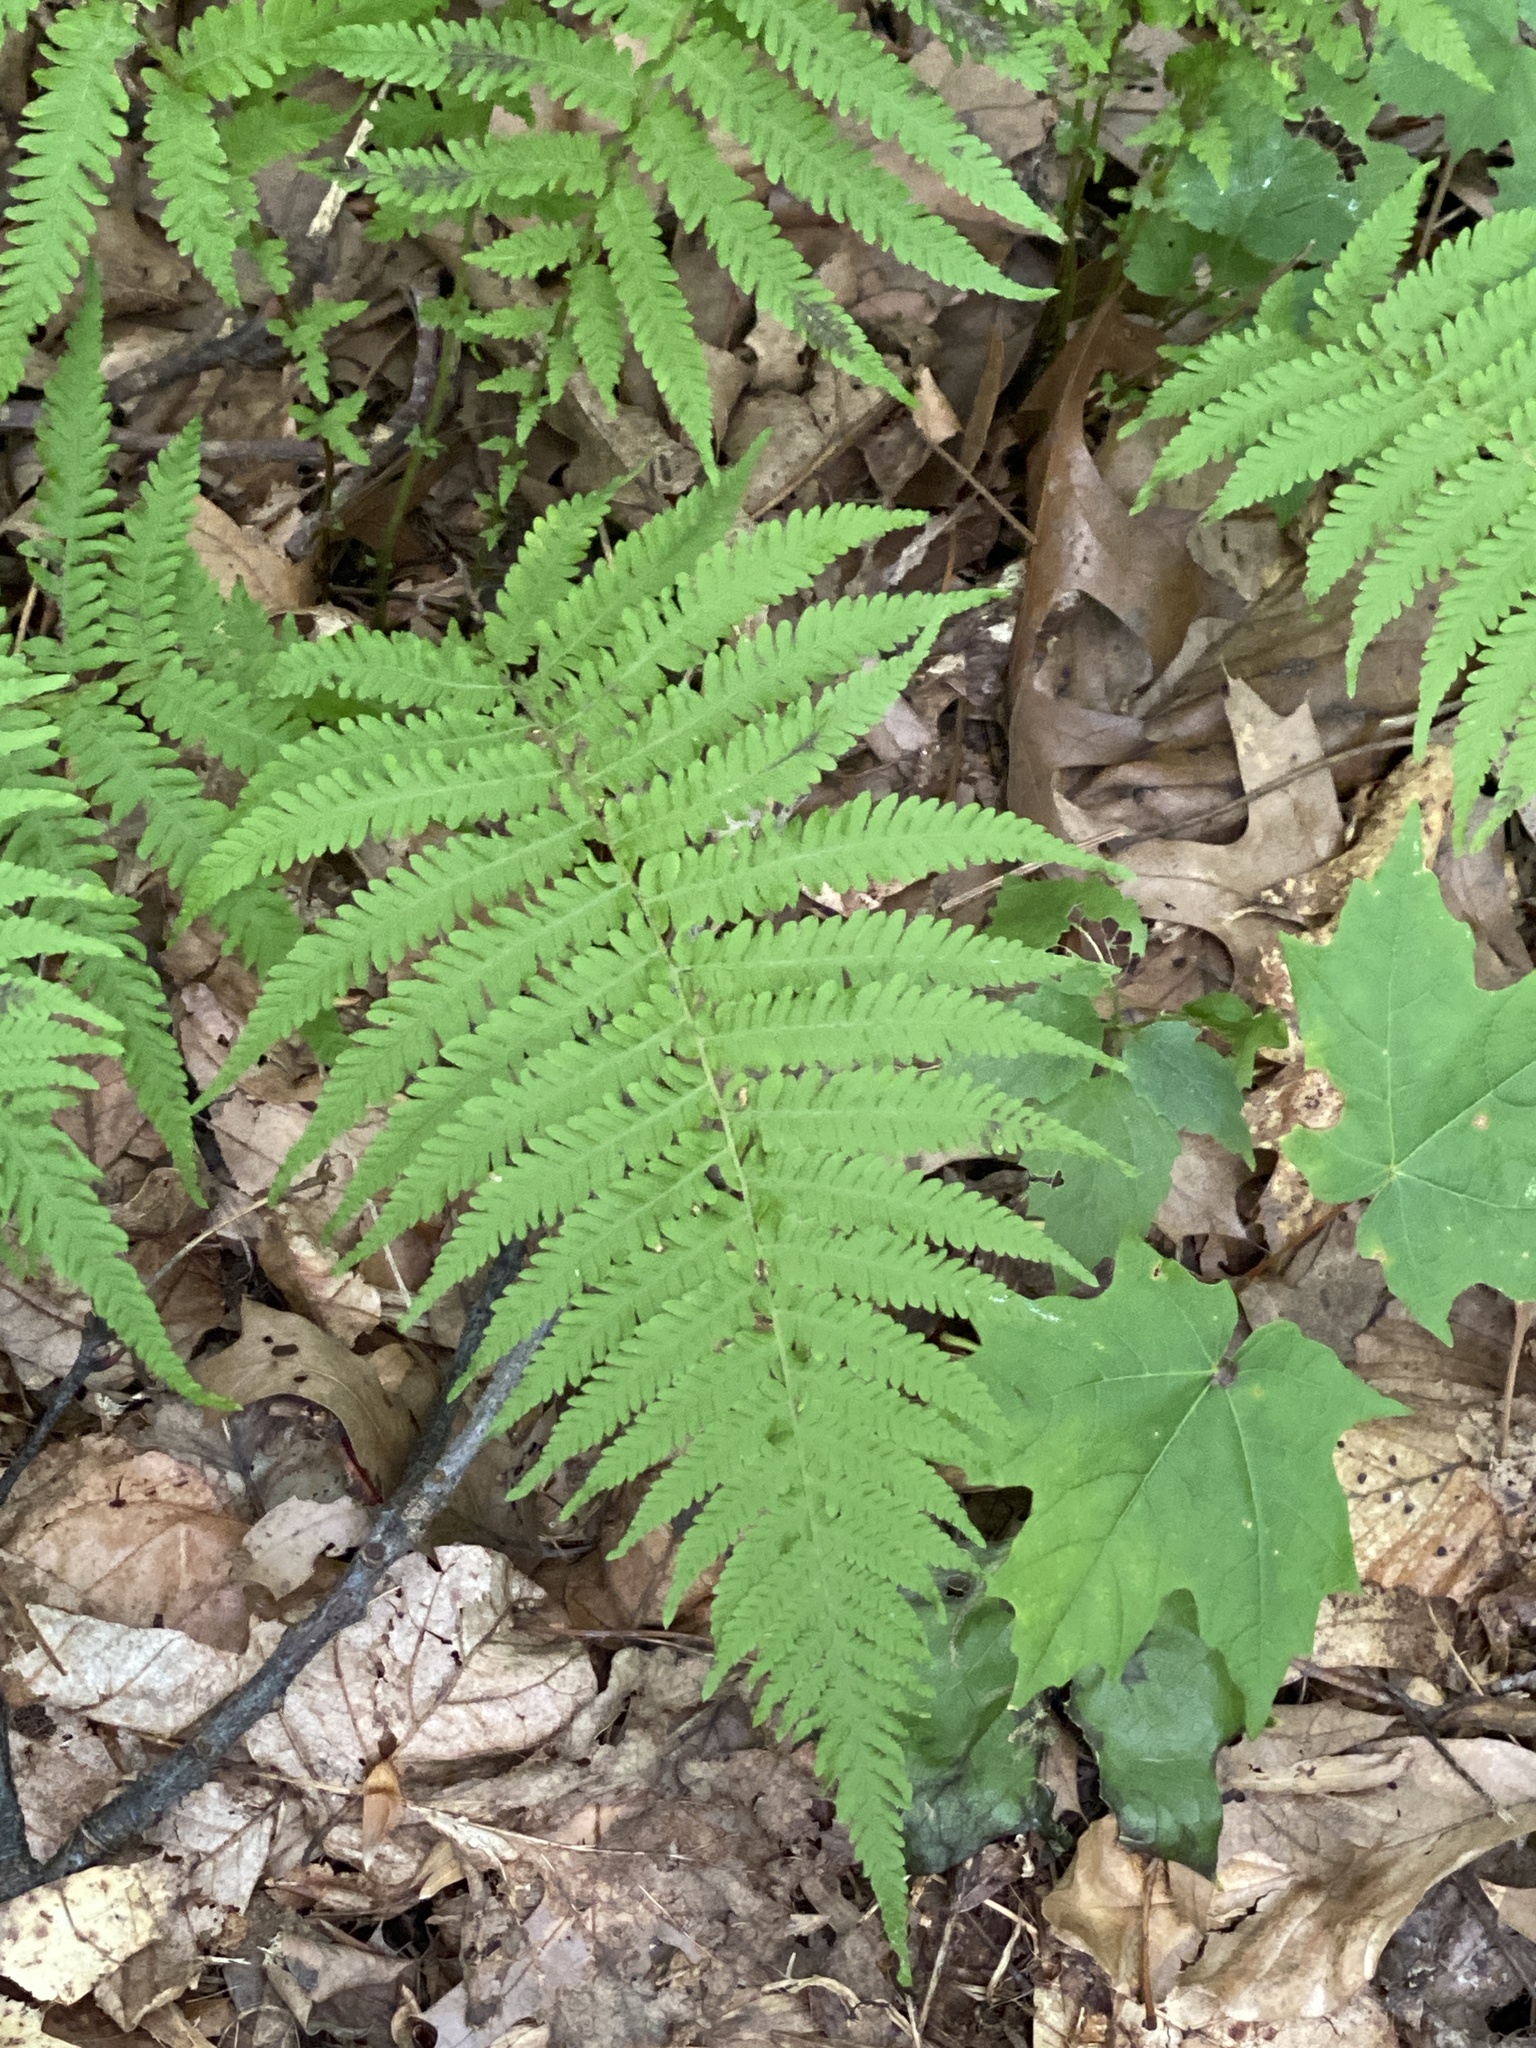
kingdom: Plantae
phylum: Tracheophyta
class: Polypodiopsida
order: Polypodiales
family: Thelypteridaceae
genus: Amauropelta
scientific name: Amauropelta noveboracensis
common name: New york fern
